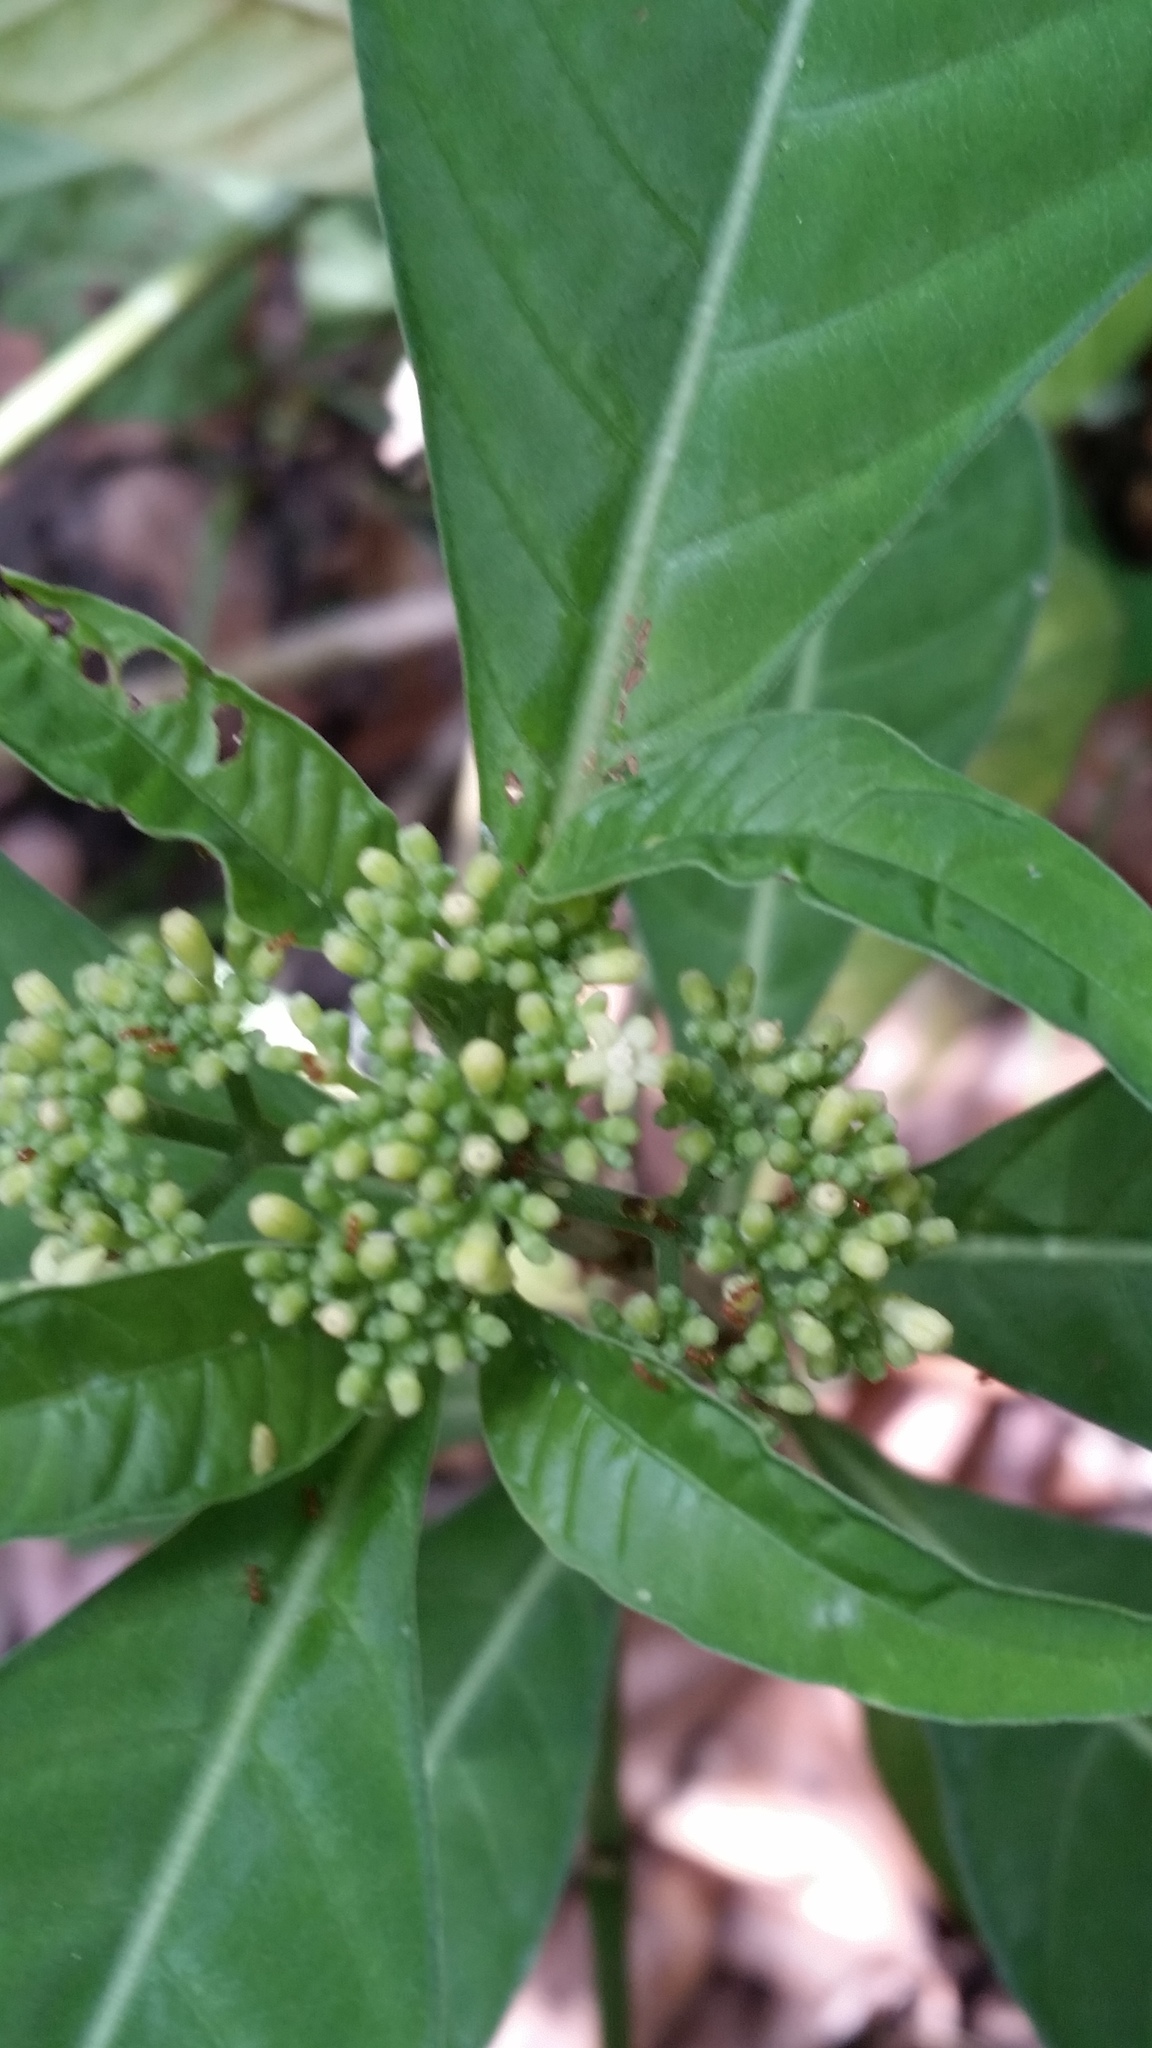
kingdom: Plantae
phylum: Tracheophyta
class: Magnoliopsida
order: Gentianales
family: Rubiaceae
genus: Psychotria
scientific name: Psychotria tenuifolia
